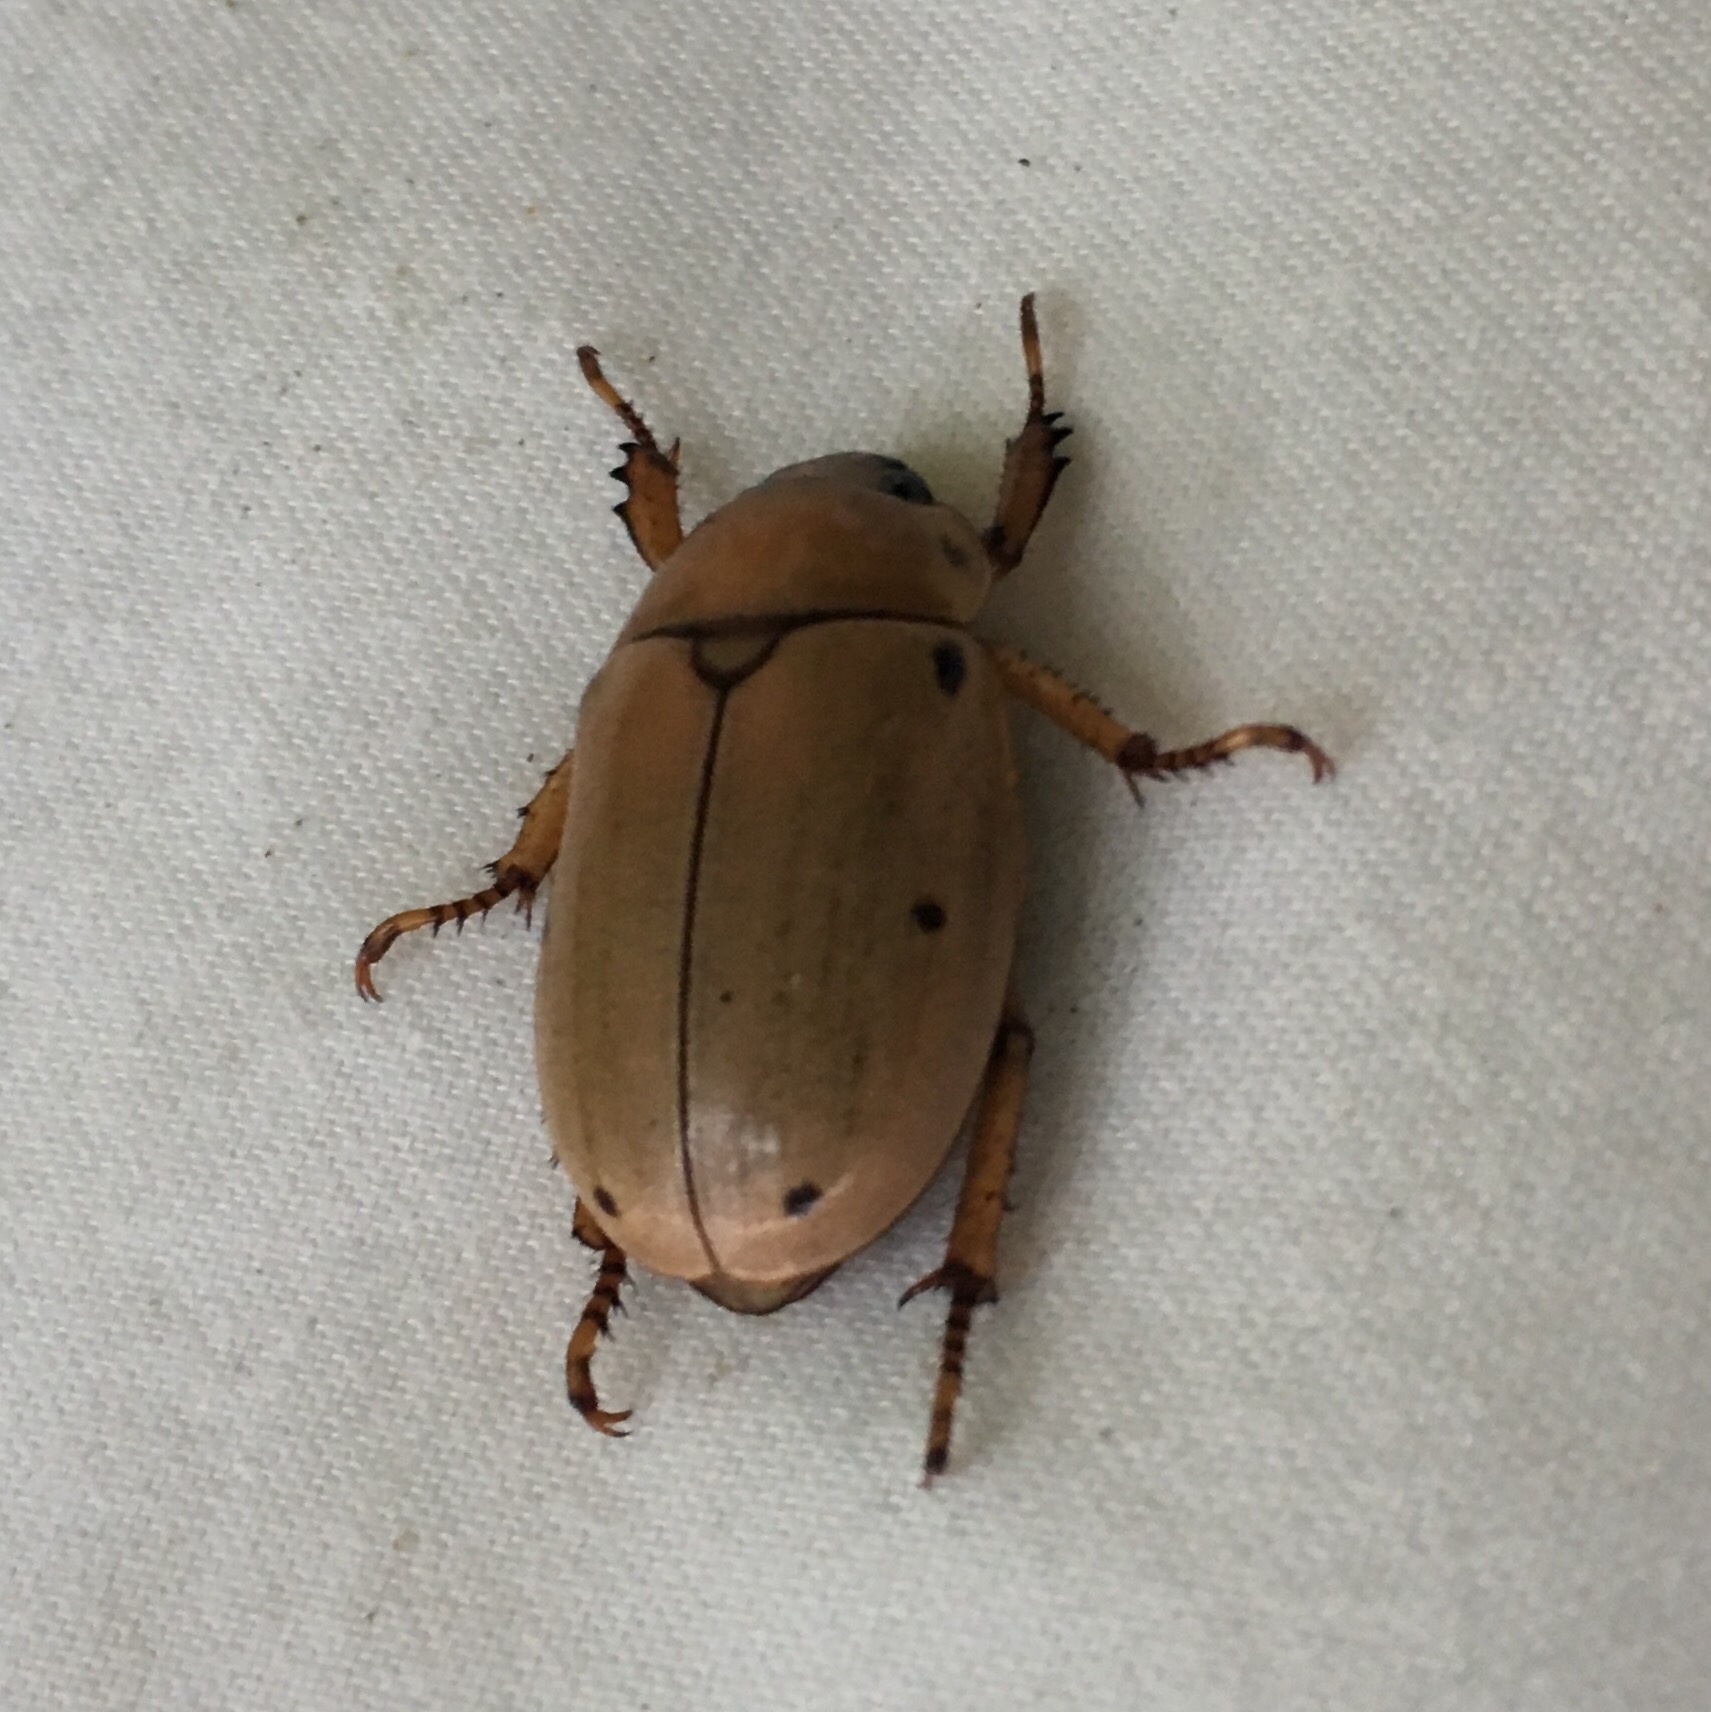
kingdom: Animalia
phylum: Arthropoda
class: Insecta
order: Coleoptera
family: Scarabaeidae
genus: Pelidnota
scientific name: Pelidnota punctata
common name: Grapevine beetle
